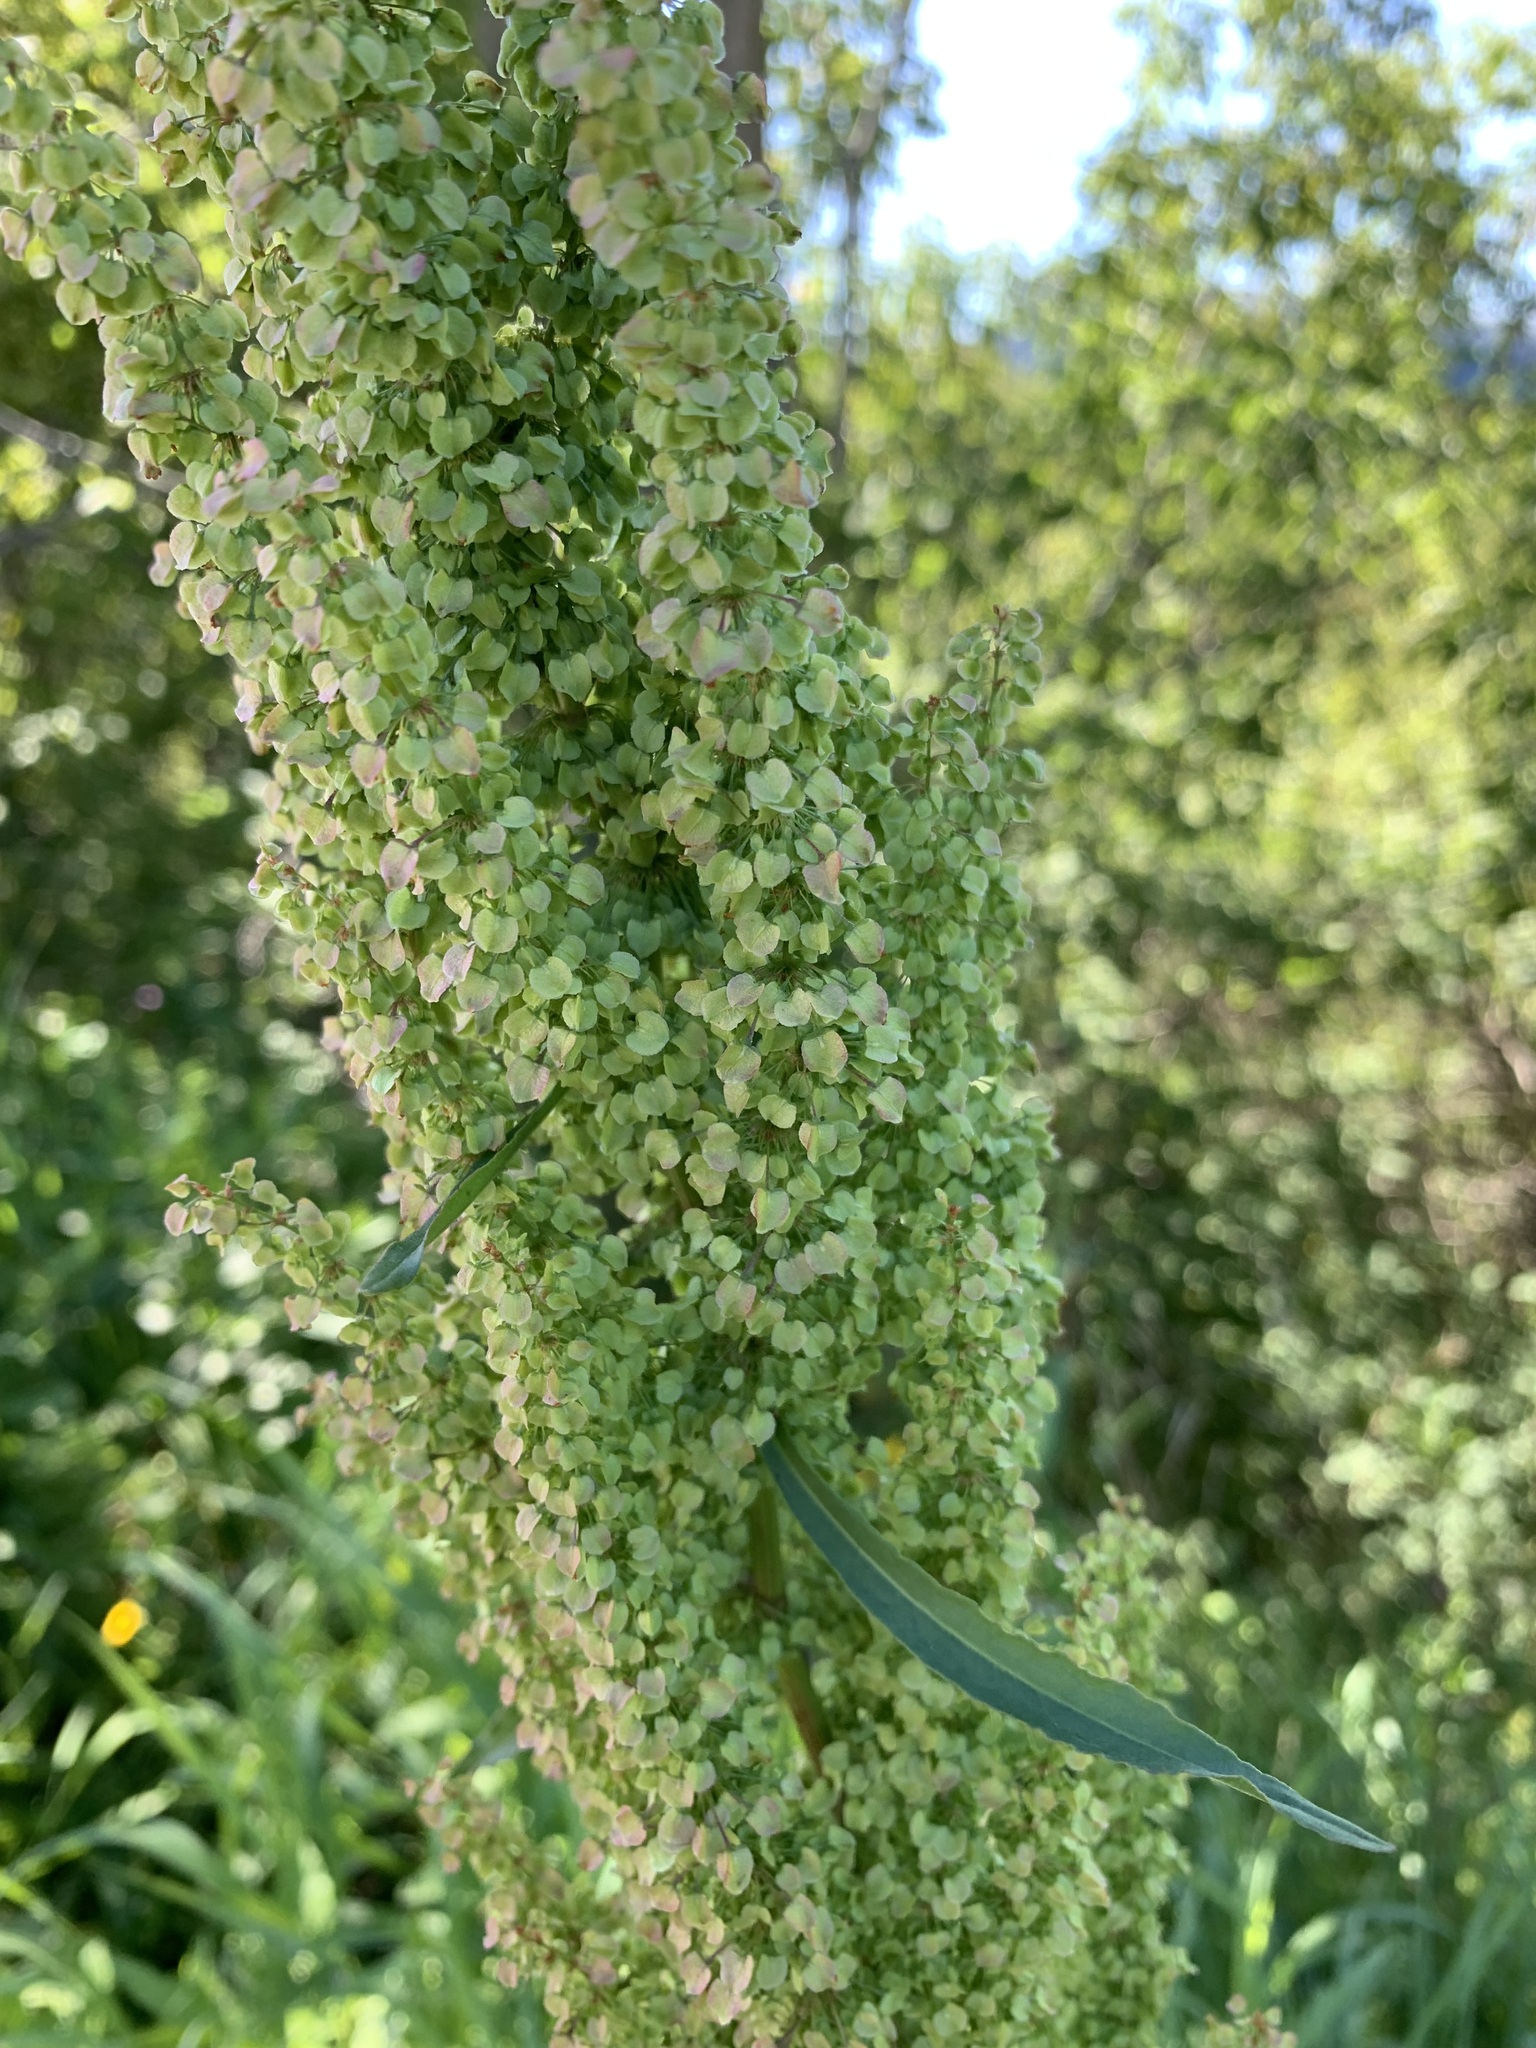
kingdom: Plantae
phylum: Tracheophyta
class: Magnoliopsida
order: Caryophyllales
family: Polygonaceae
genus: Rumex
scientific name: Rumex pseudonatronatus
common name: Field dock
